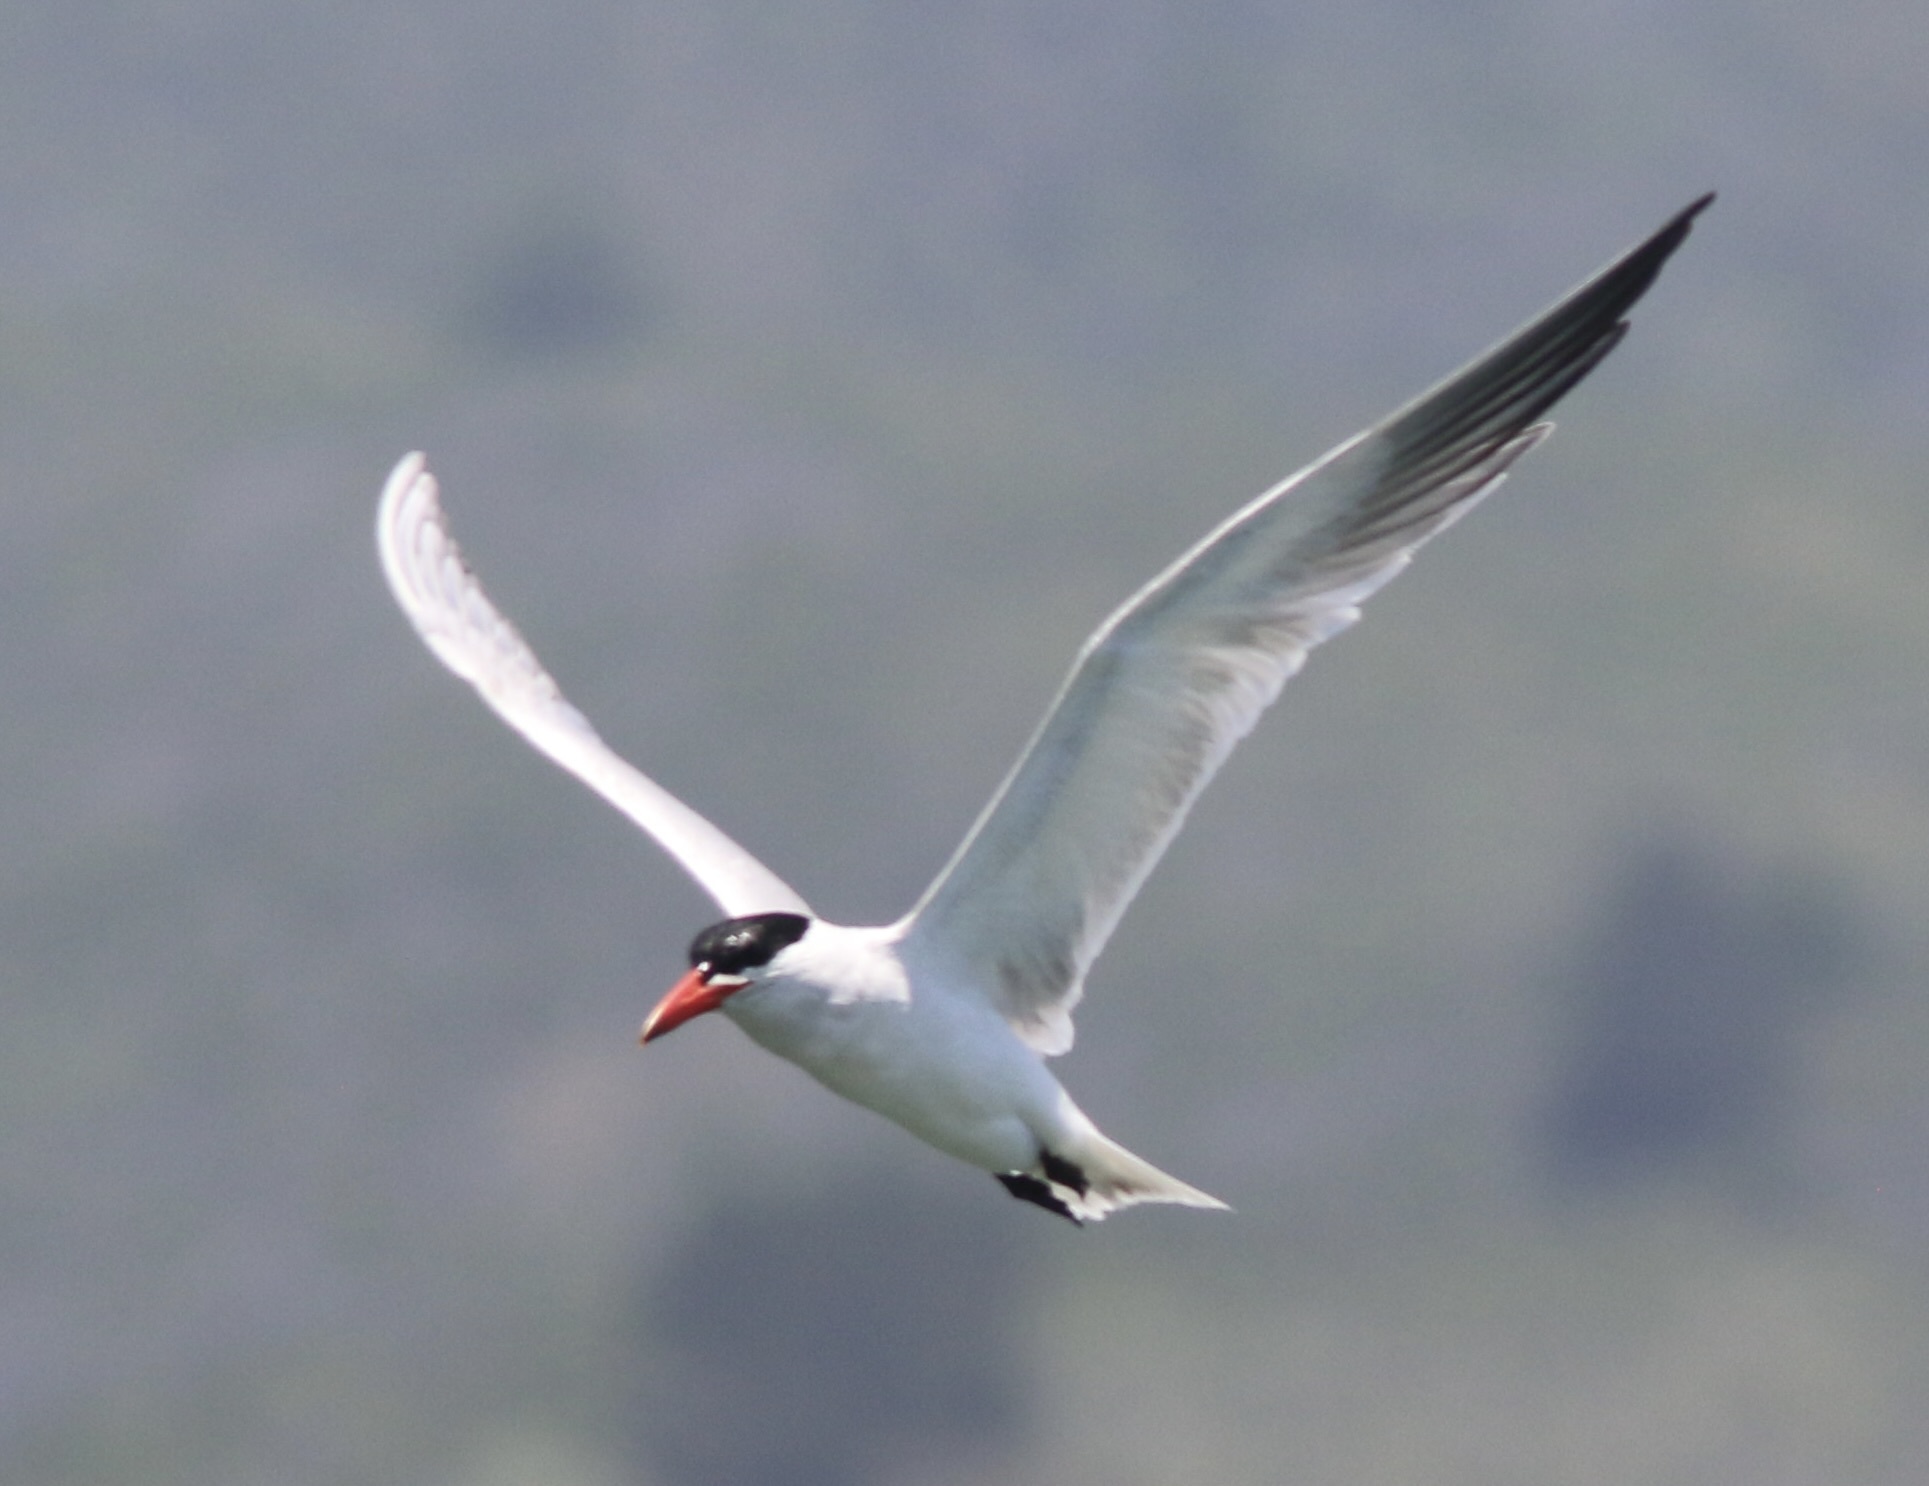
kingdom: Animalia
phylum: Chordata
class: Aves
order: Charadriiformes
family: Laridae
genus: Hydroprogne
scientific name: Hydroprogne caspia
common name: Caspian tern
